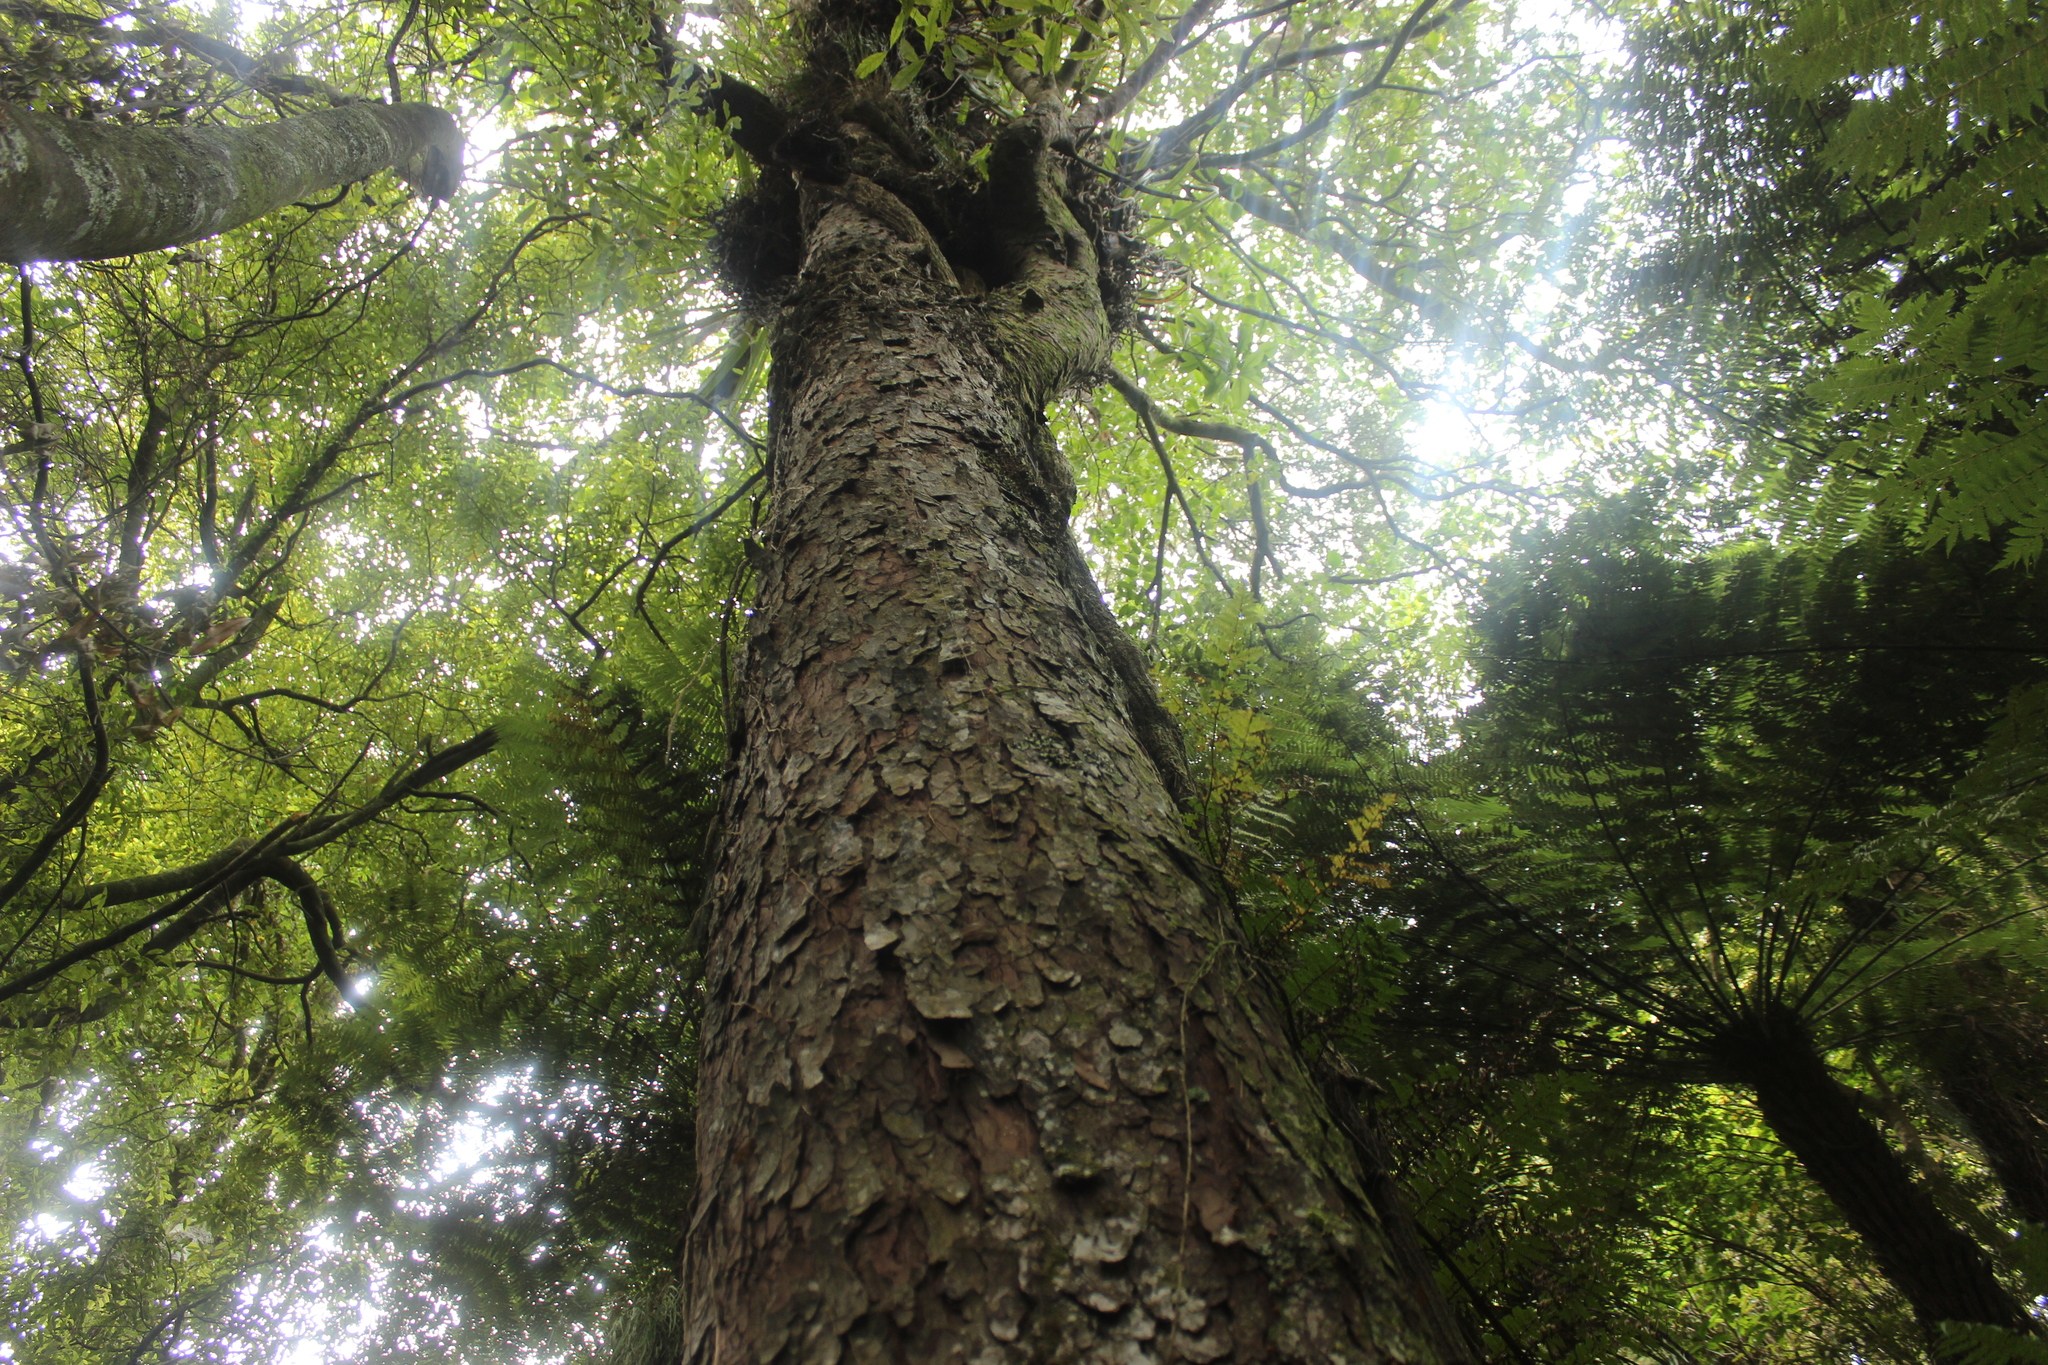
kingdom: Plantae
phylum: Tracheophyta
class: Pinopsida
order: Pinales
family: Podocarpaceae
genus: Prumnopitys
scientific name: Prumnopitys ferruginea
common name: Brown pine
